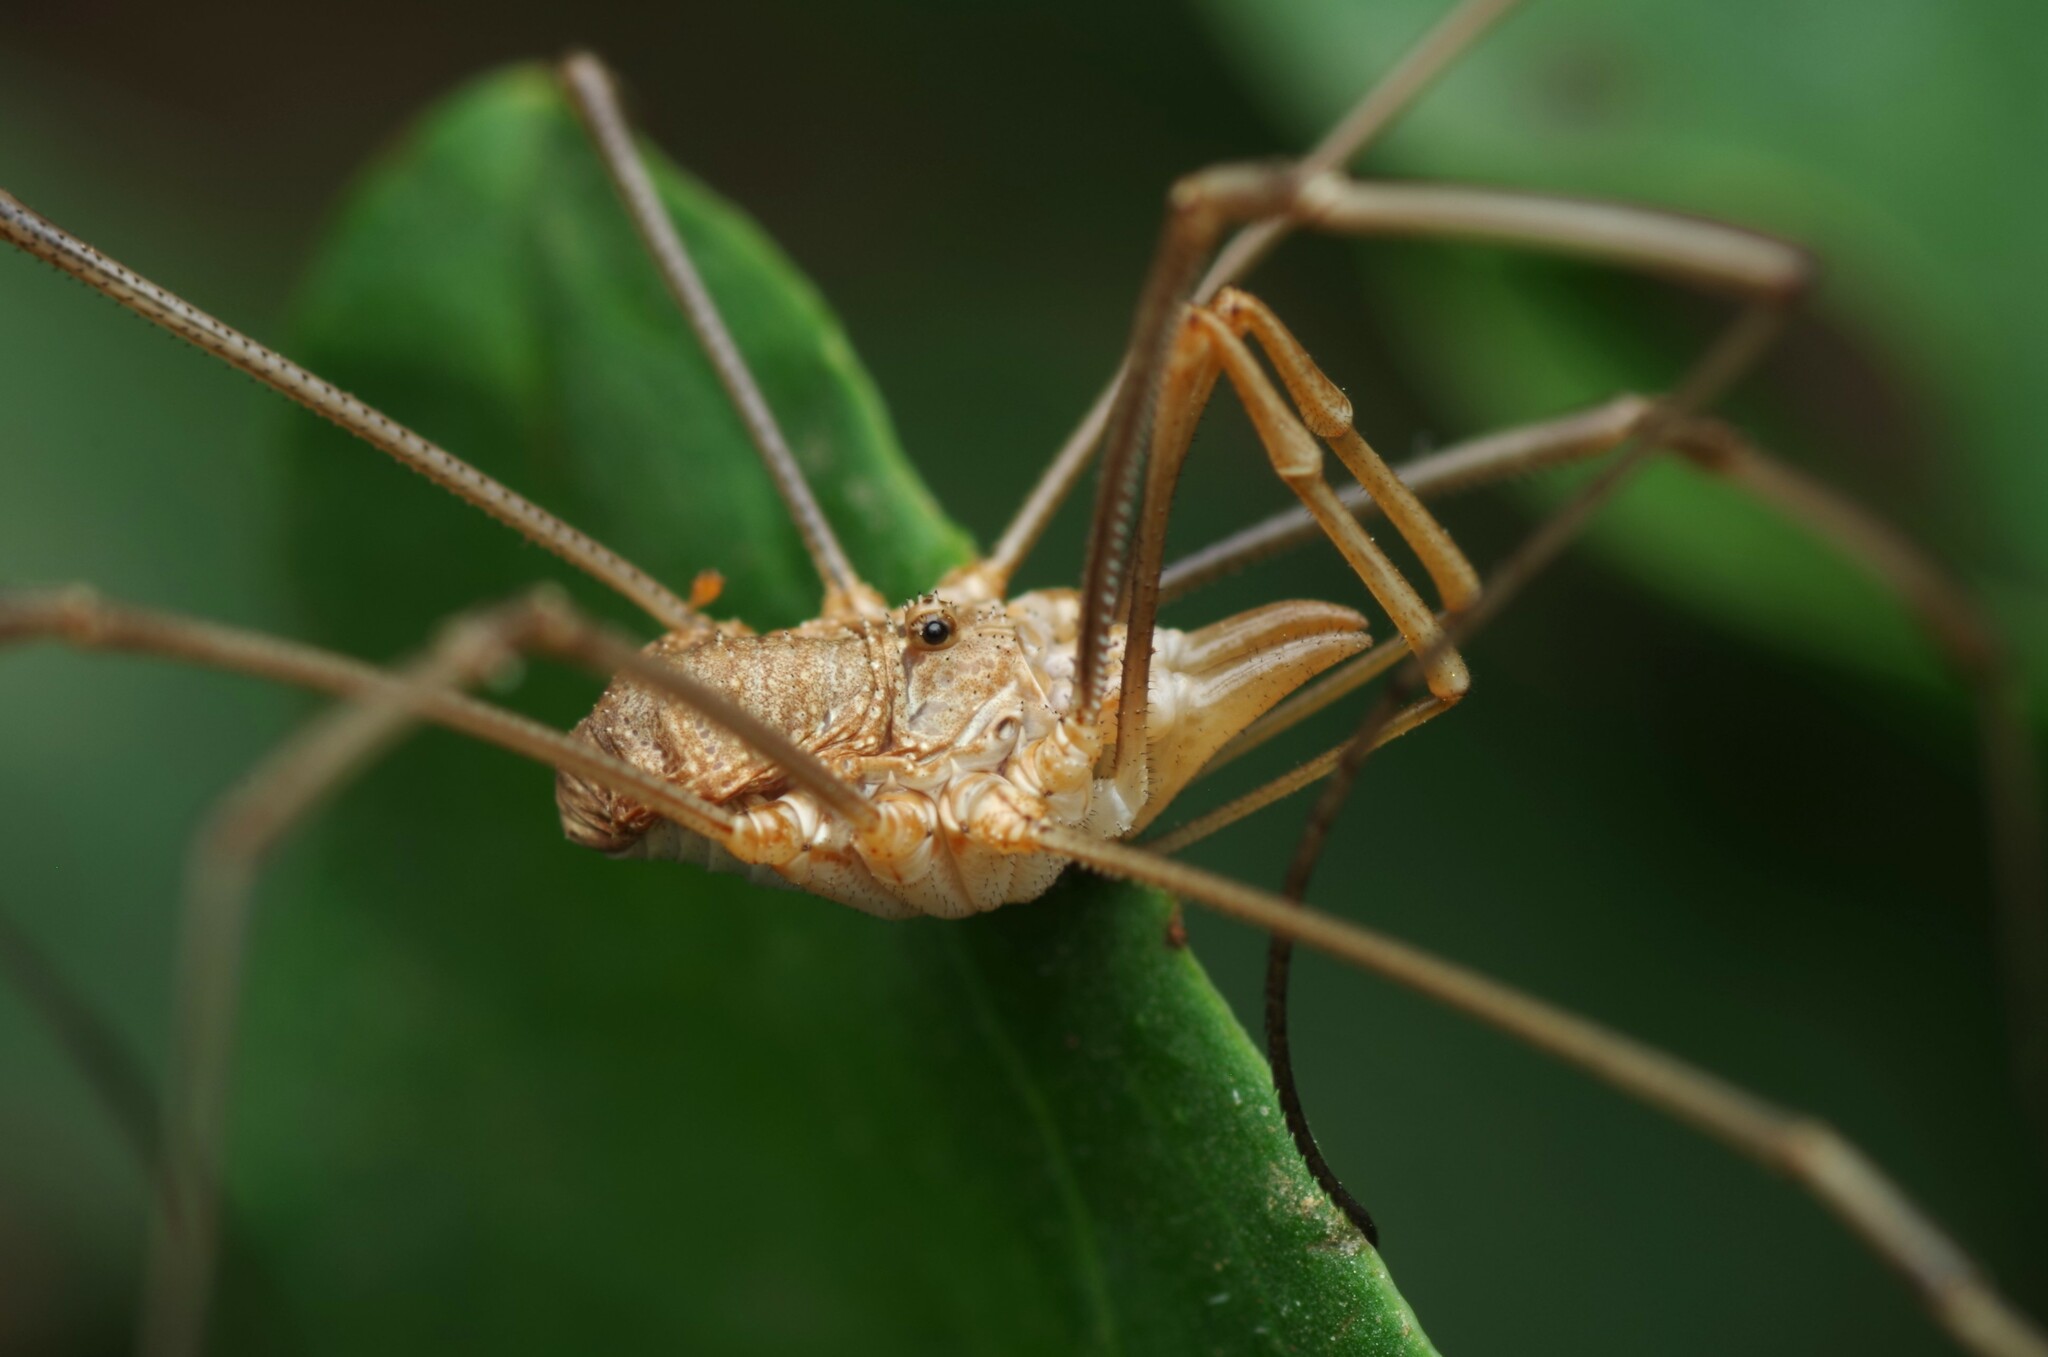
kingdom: Animalia
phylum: Arthropoda
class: Arachnida
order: Opiliones
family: Phalangiidae
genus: Phalangium
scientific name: Phalangium opilio
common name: Daddy longleg
